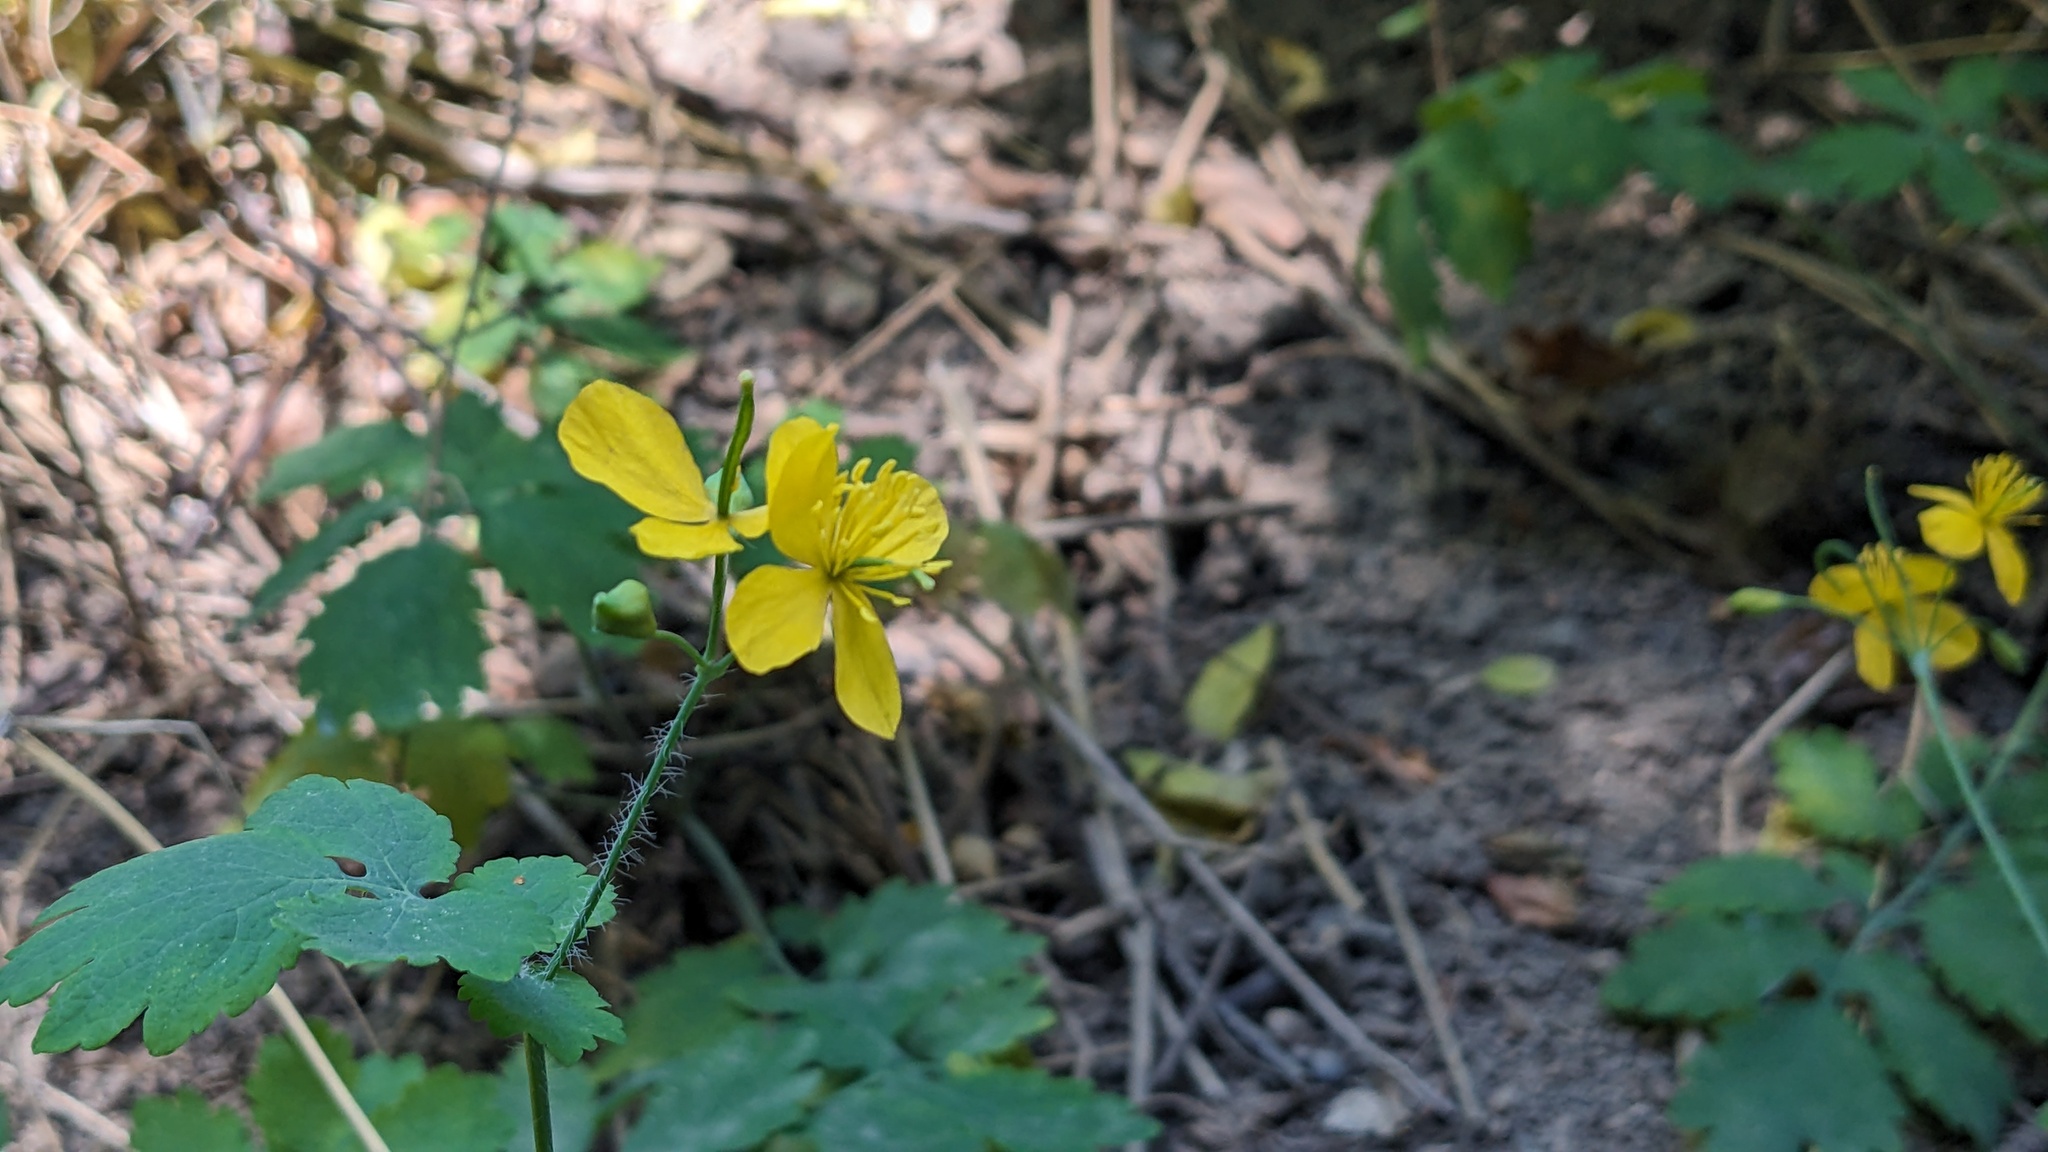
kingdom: Plantae
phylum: Tracheophyta
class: Magnoliopsida
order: Ranunculales
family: Papaveraceae
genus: Chelidonium
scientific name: Chelidonium majus
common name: Greater celandine
